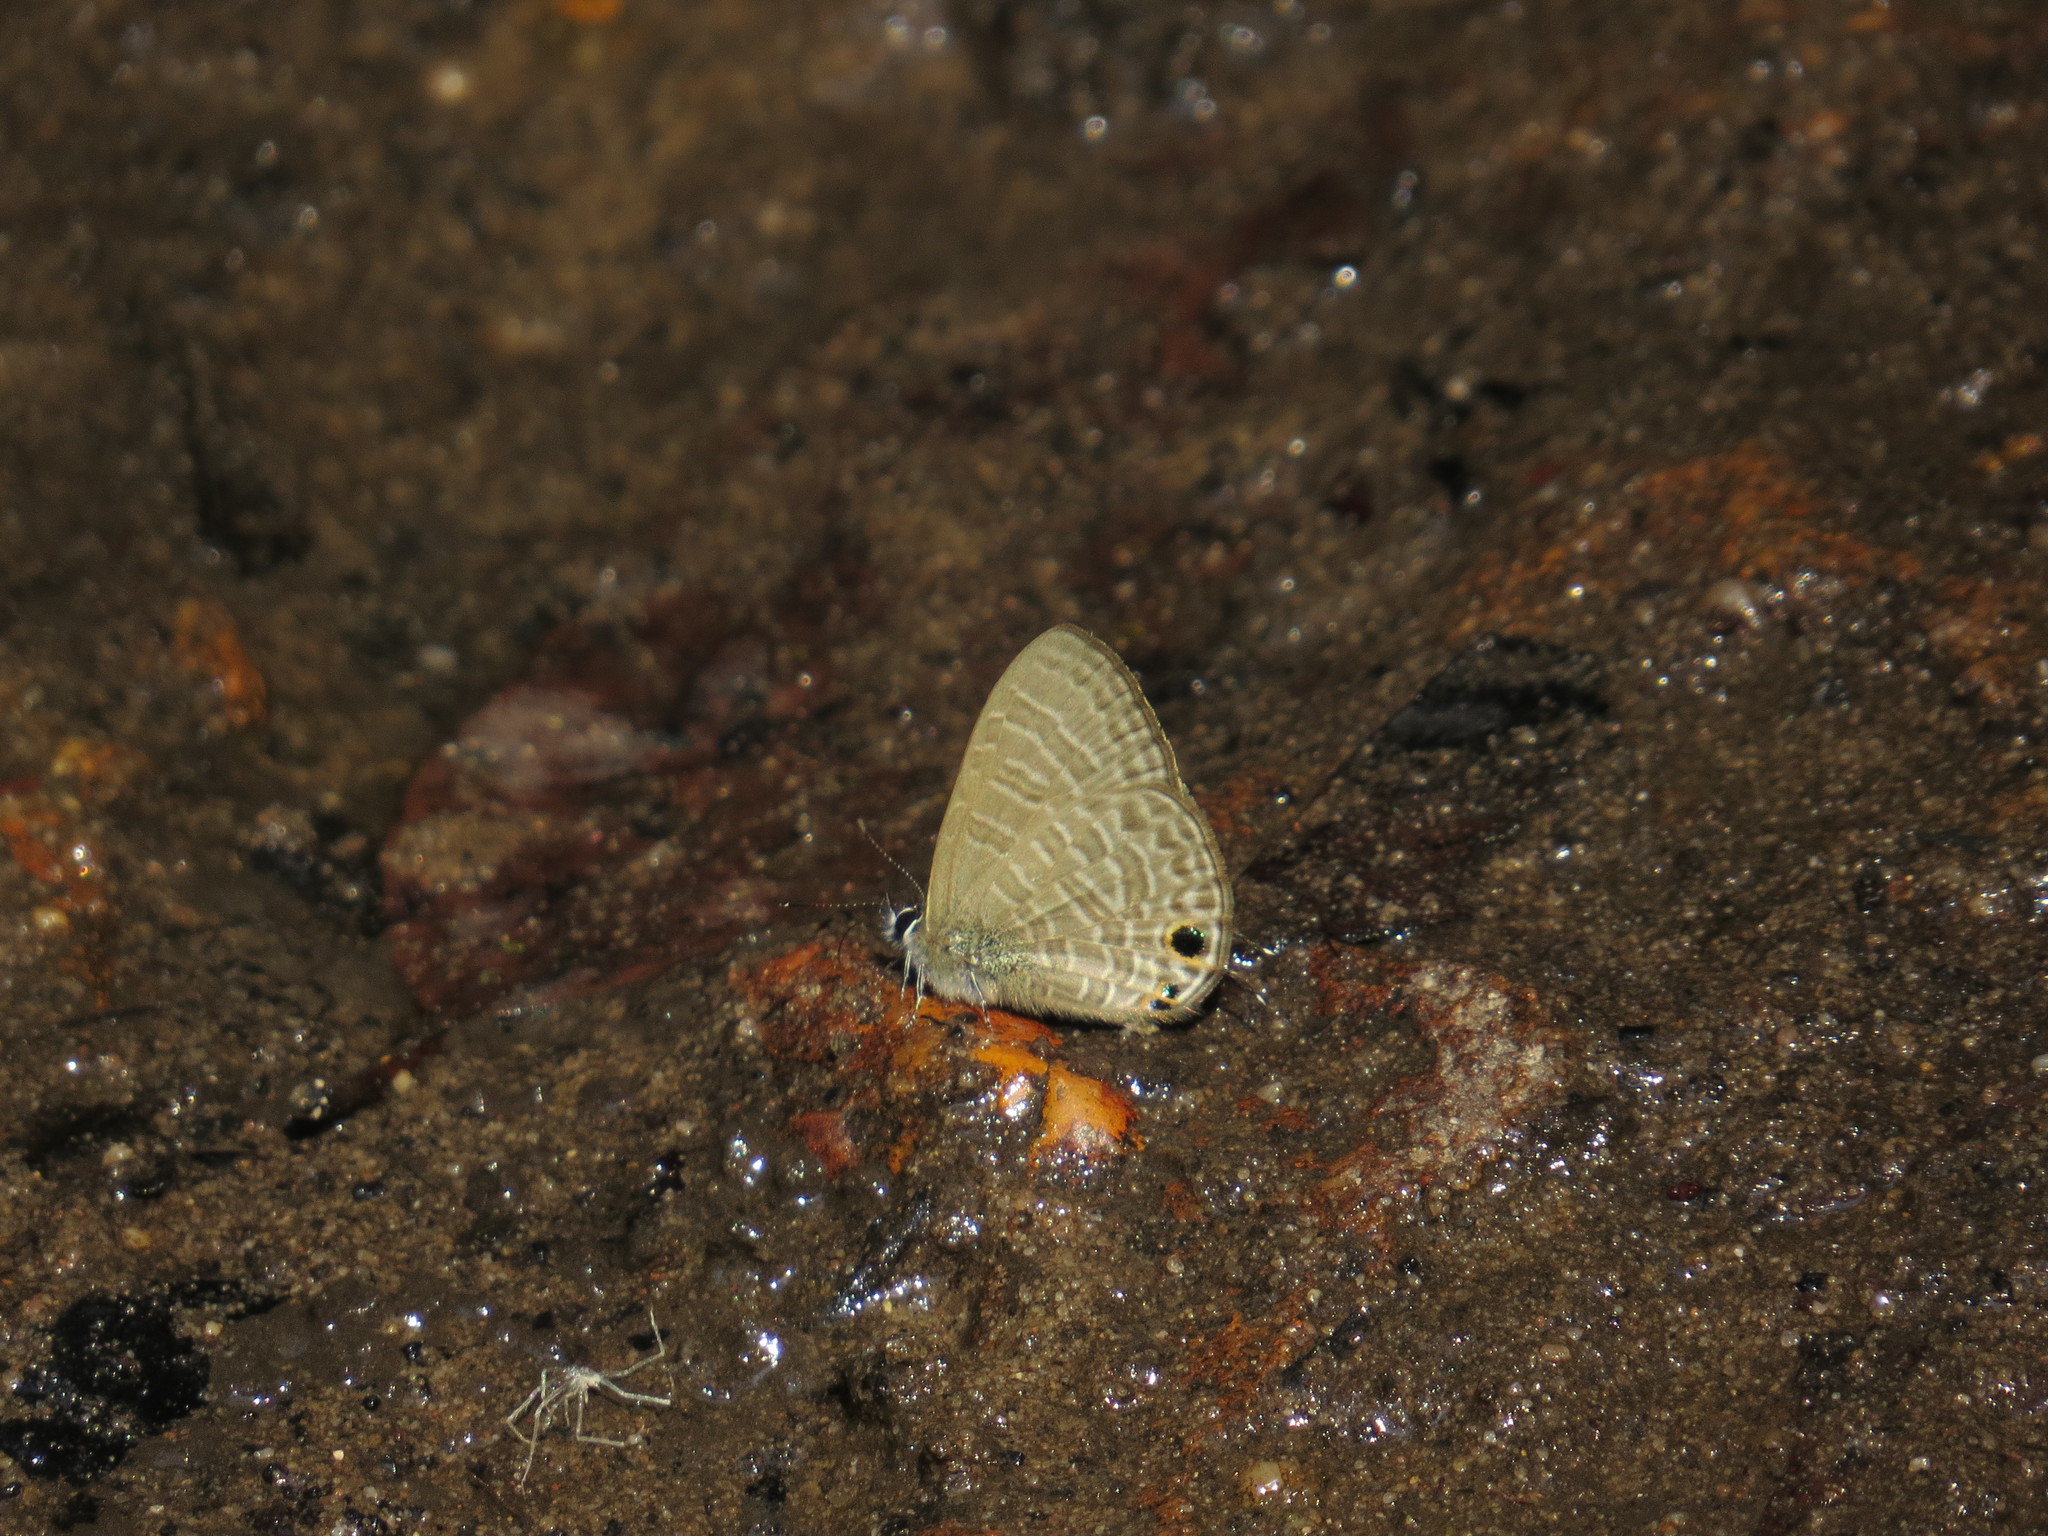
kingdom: Animalia
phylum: Arthropoda
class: Insecta
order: Lepidoptera
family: Lycaenidae
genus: Prosotas
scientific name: Prosotas dubiosa
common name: Tailless lineblue
